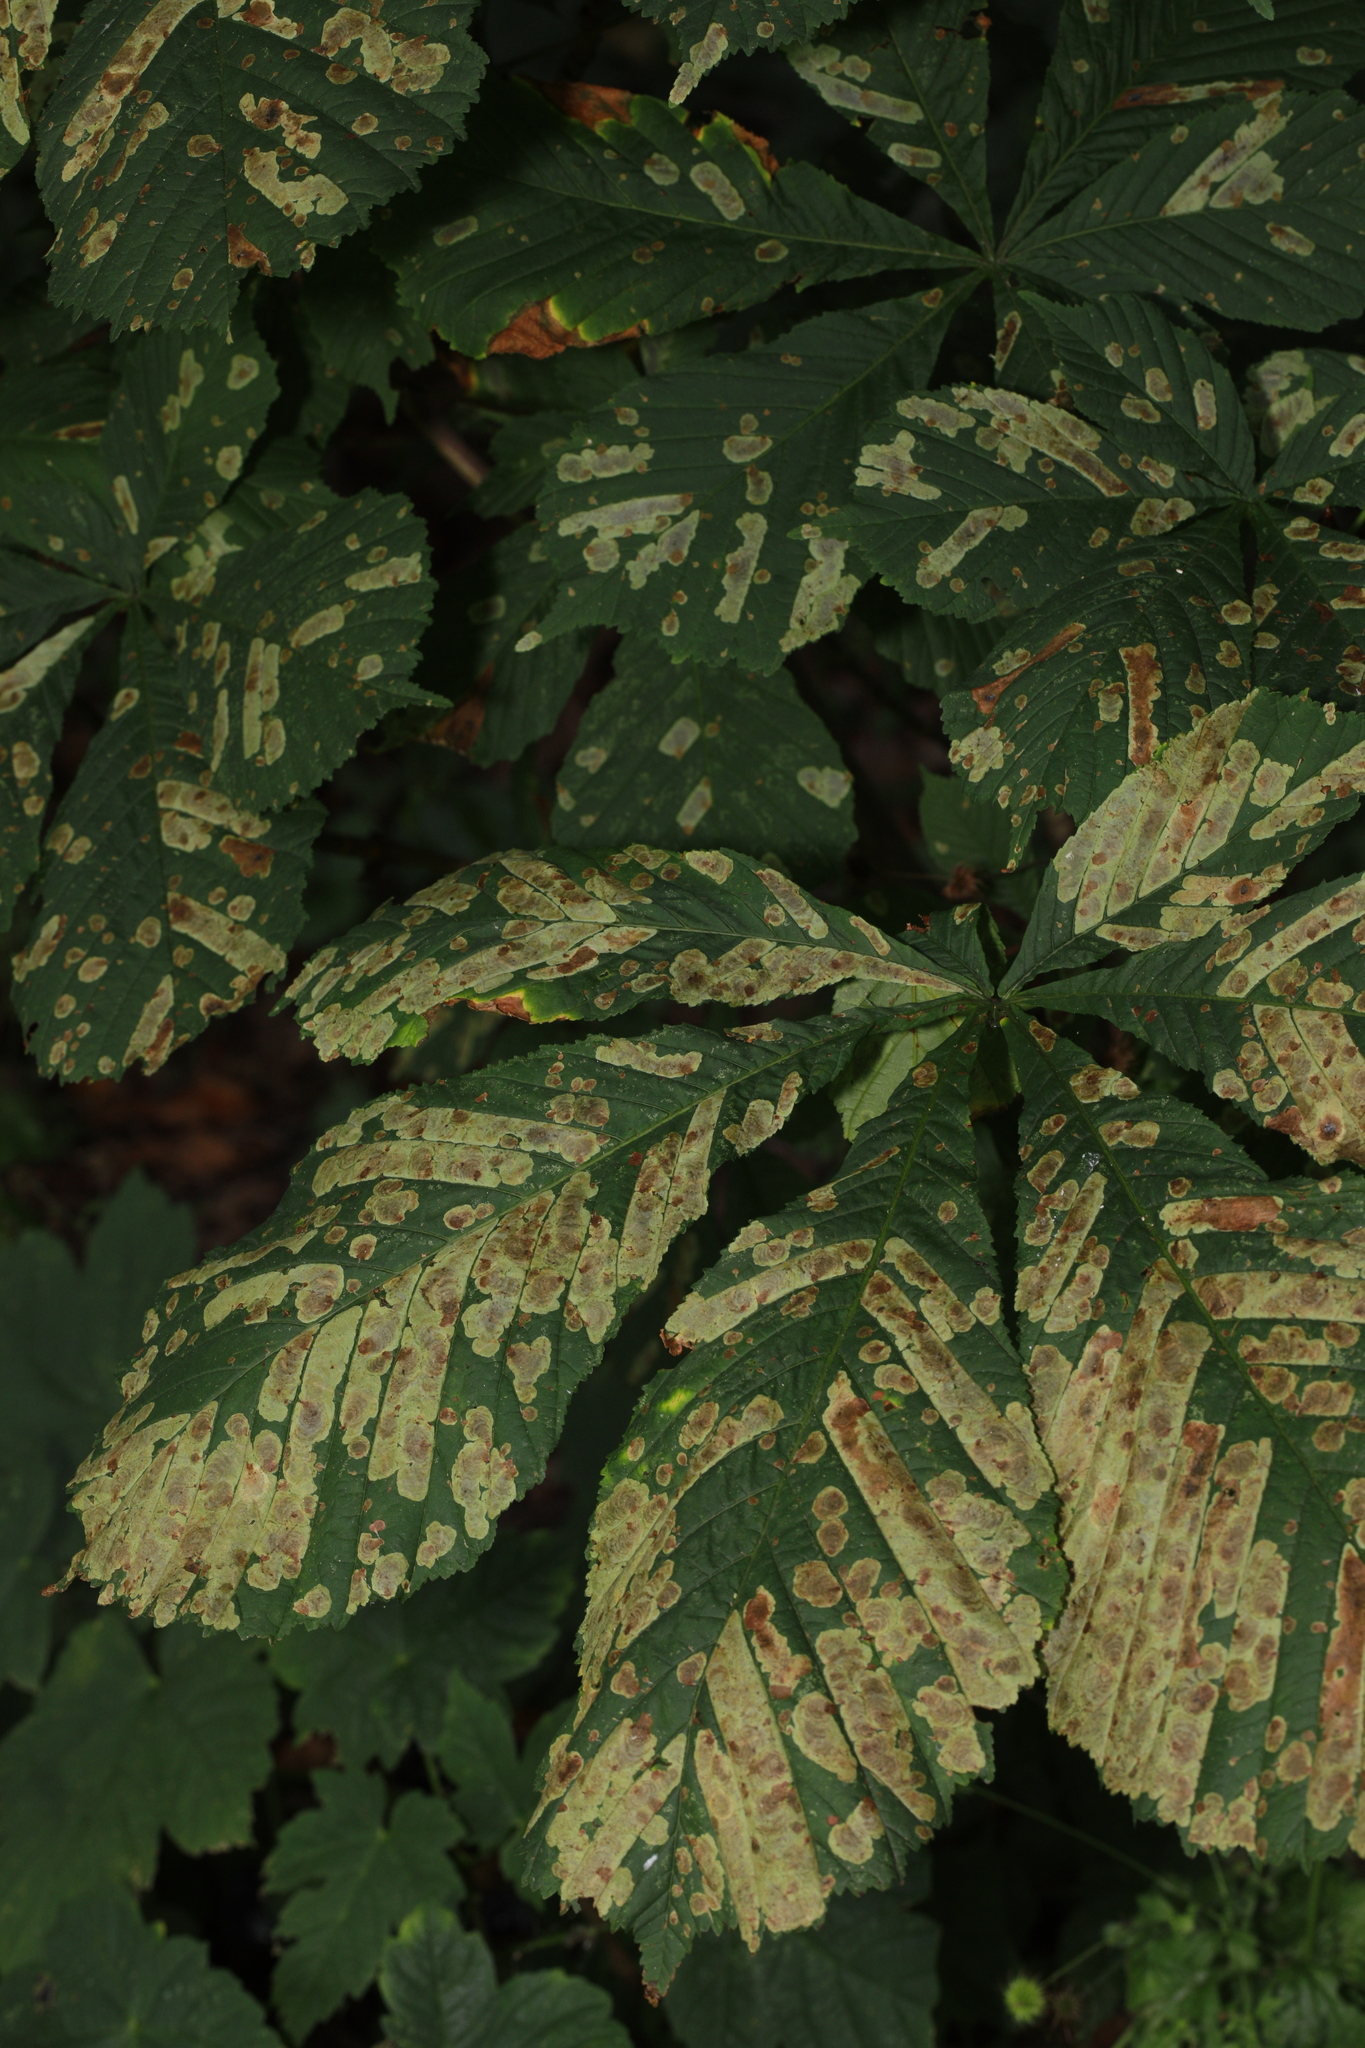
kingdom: Animalia
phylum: Arthropoda
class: Insecta
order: Lepidoptera
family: Gracillariidae
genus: Cameraria
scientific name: Cameraria ohridella
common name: Horse-chestnut leaf-miner
